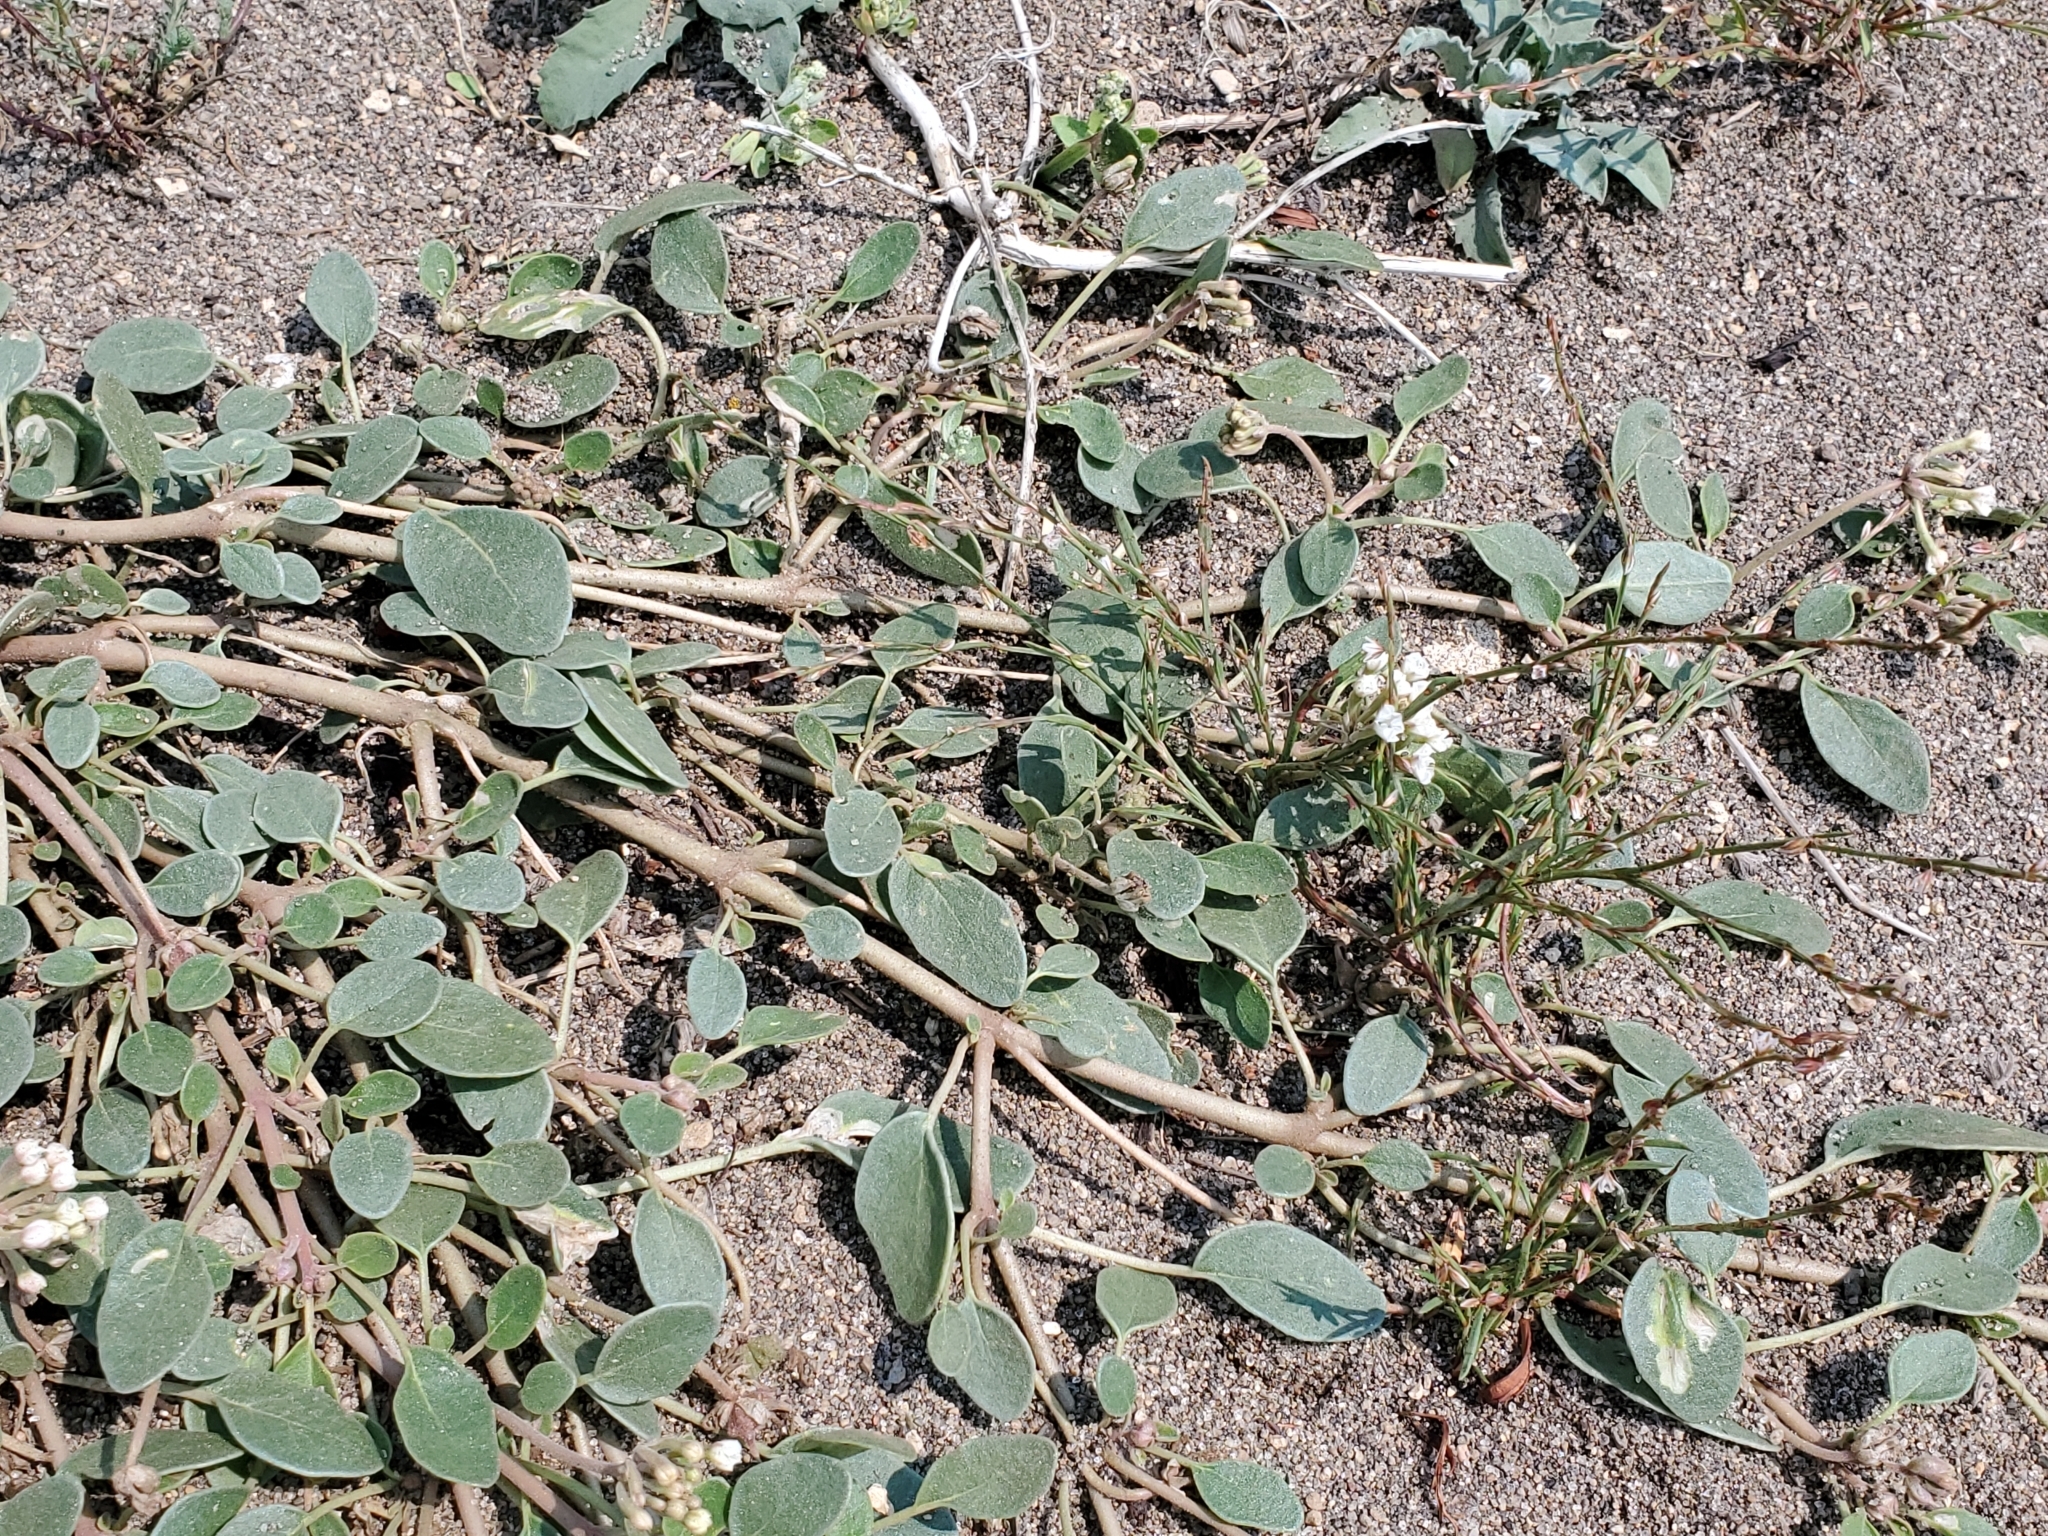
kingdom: Plantae
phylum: Tracheophyta
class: Magnoliopsida
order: Caryophyllales
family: Nyctaginaceae
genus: Abronia
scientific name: Abronia ammophila
